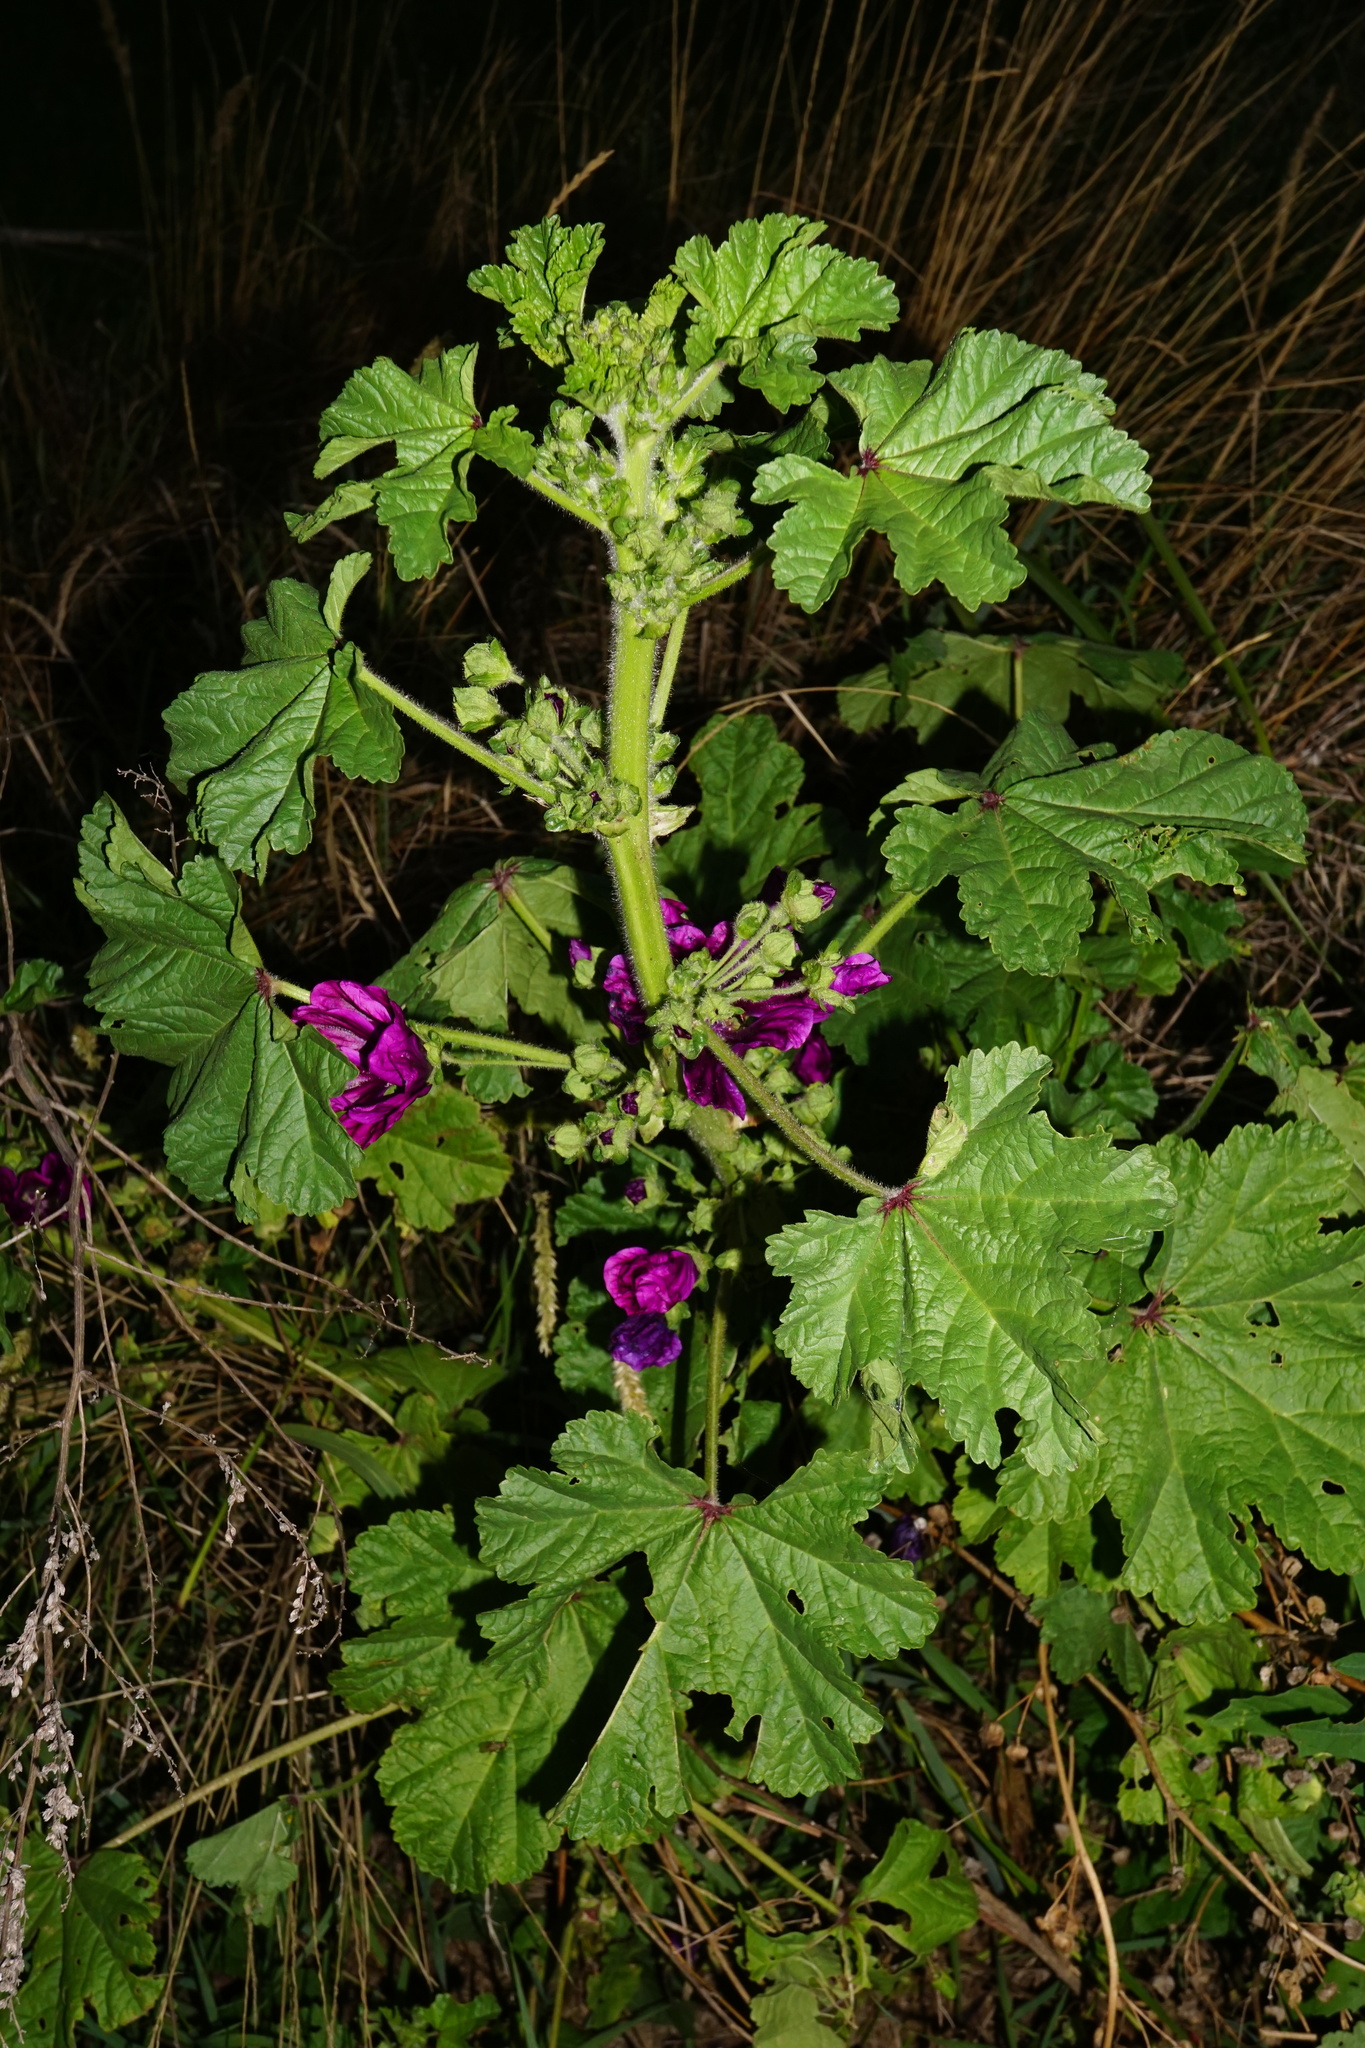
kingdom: Plantae
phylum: Tracheophyta
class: Magnoliopsida
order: Malvales
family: Malvaceae
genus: Malva
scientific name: Malva sylvestris
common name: Common mallow
